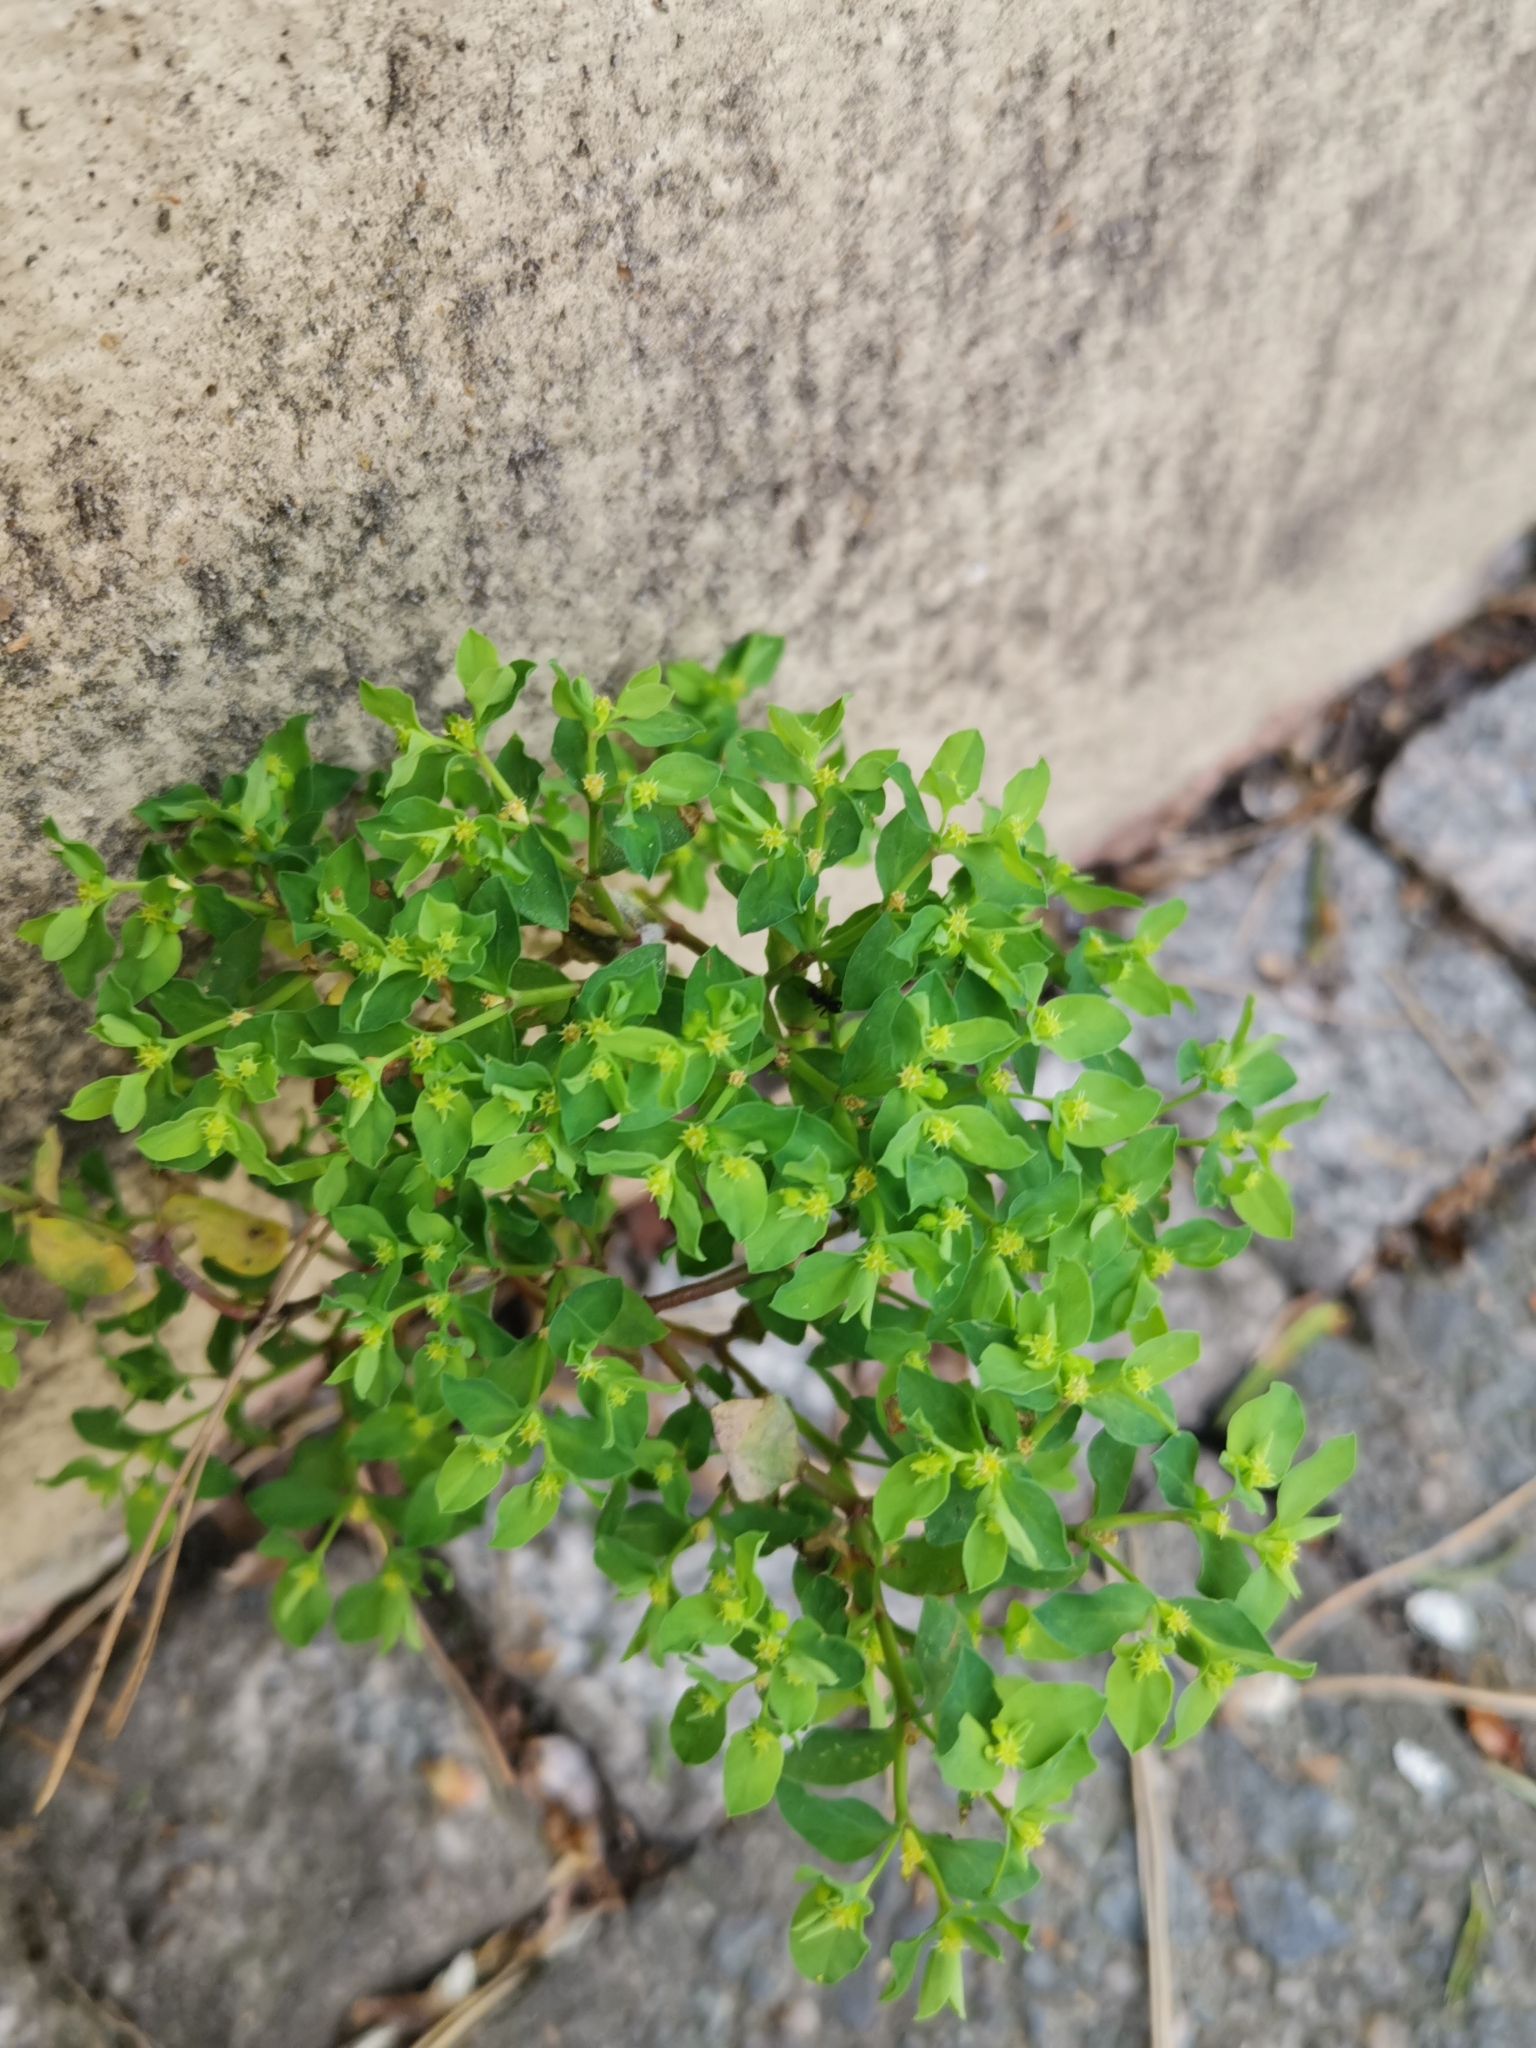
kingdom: Plantae
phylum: Tracheophyta
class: Magnoliopsida
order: Malpighiales
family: Euphorbiaceae
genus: Euphorbia
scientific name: Euphorbia peplus
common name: Petty spurge
